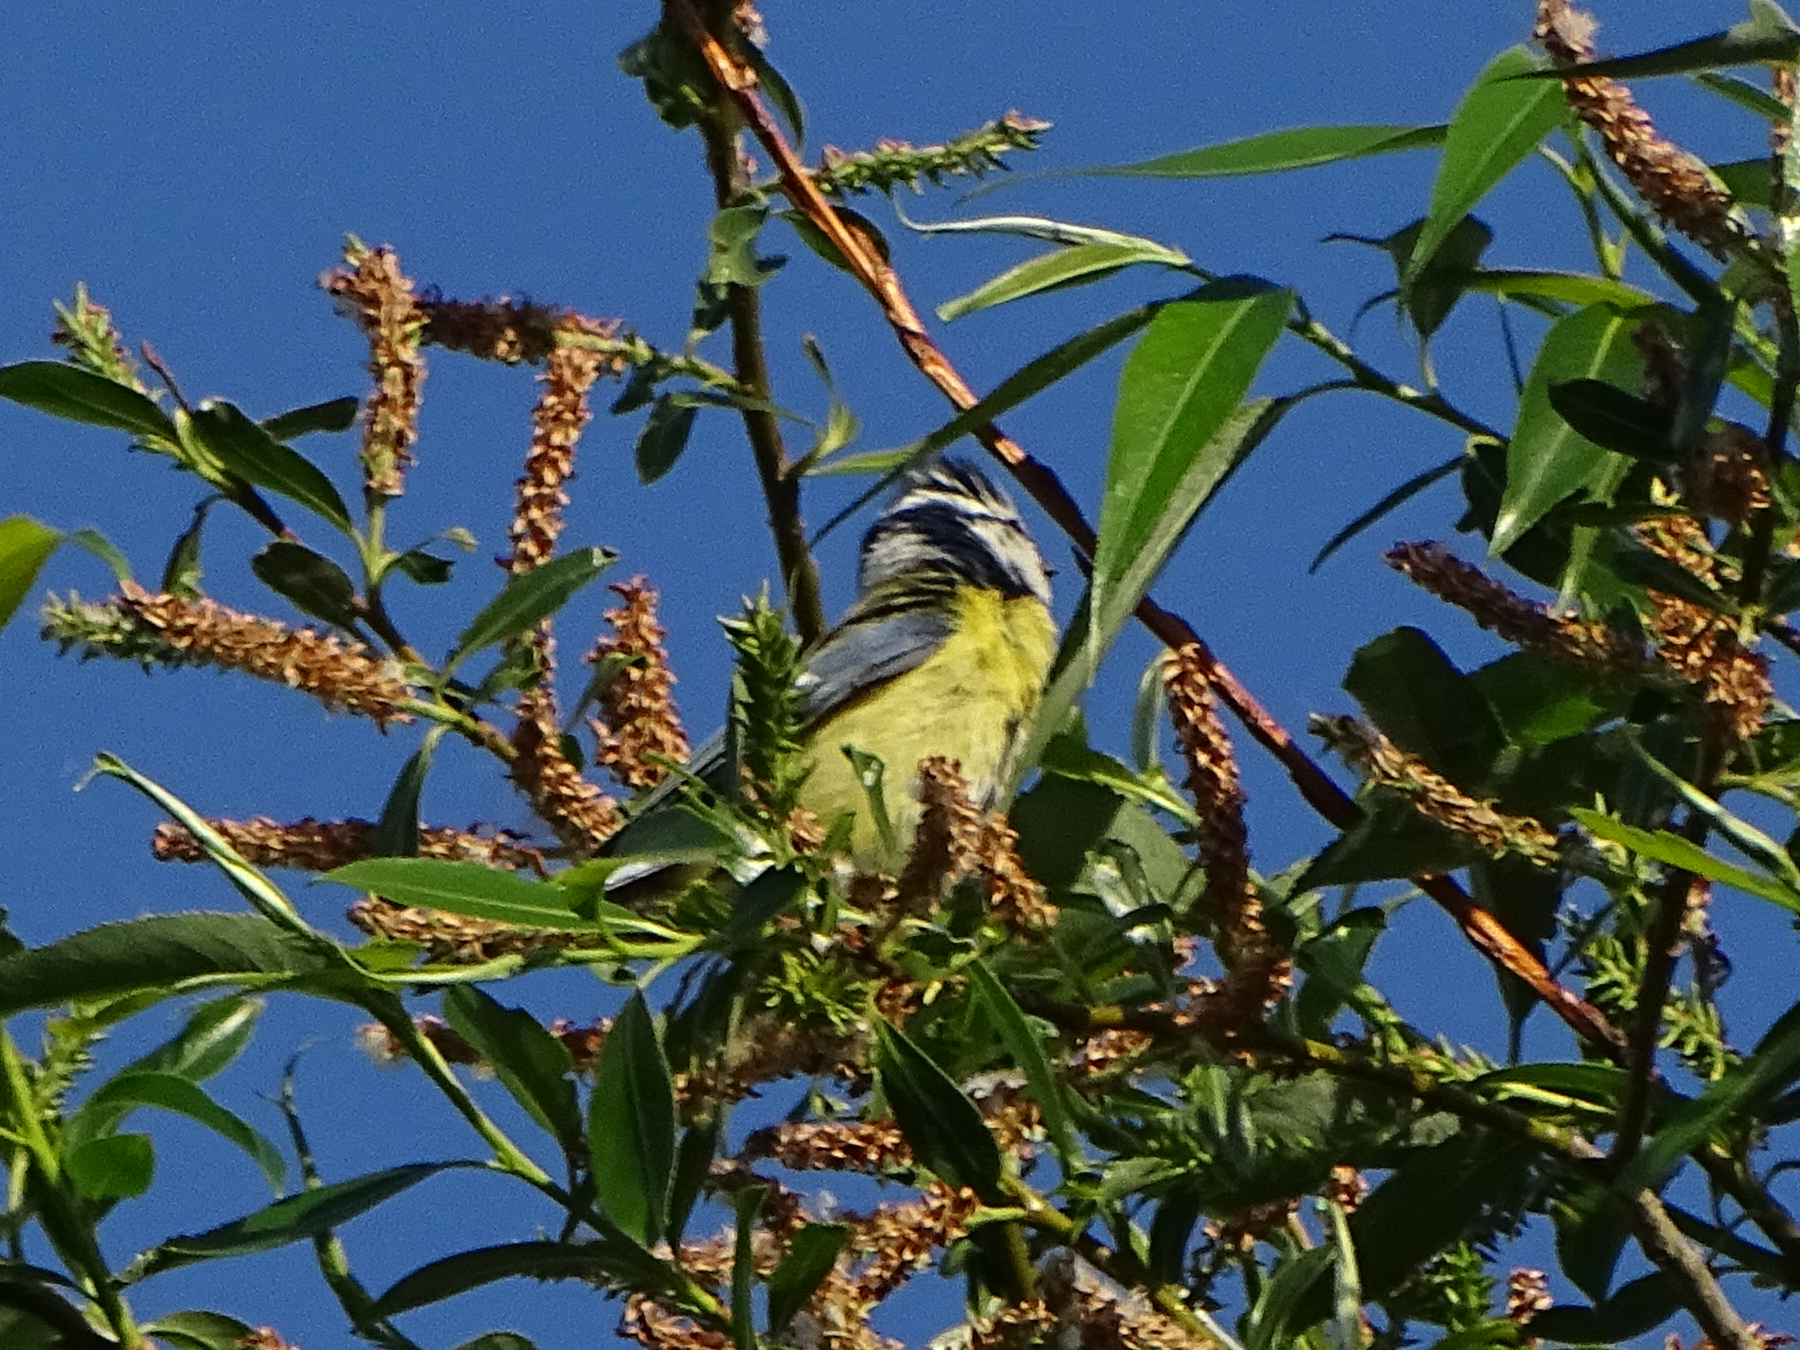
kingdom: Animalia
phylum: Chordata
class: Aves
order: Passeriformes
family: Paridae
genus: Cyanistes
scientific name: Cyanistes caeruleus
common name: Eurasian blue tit
